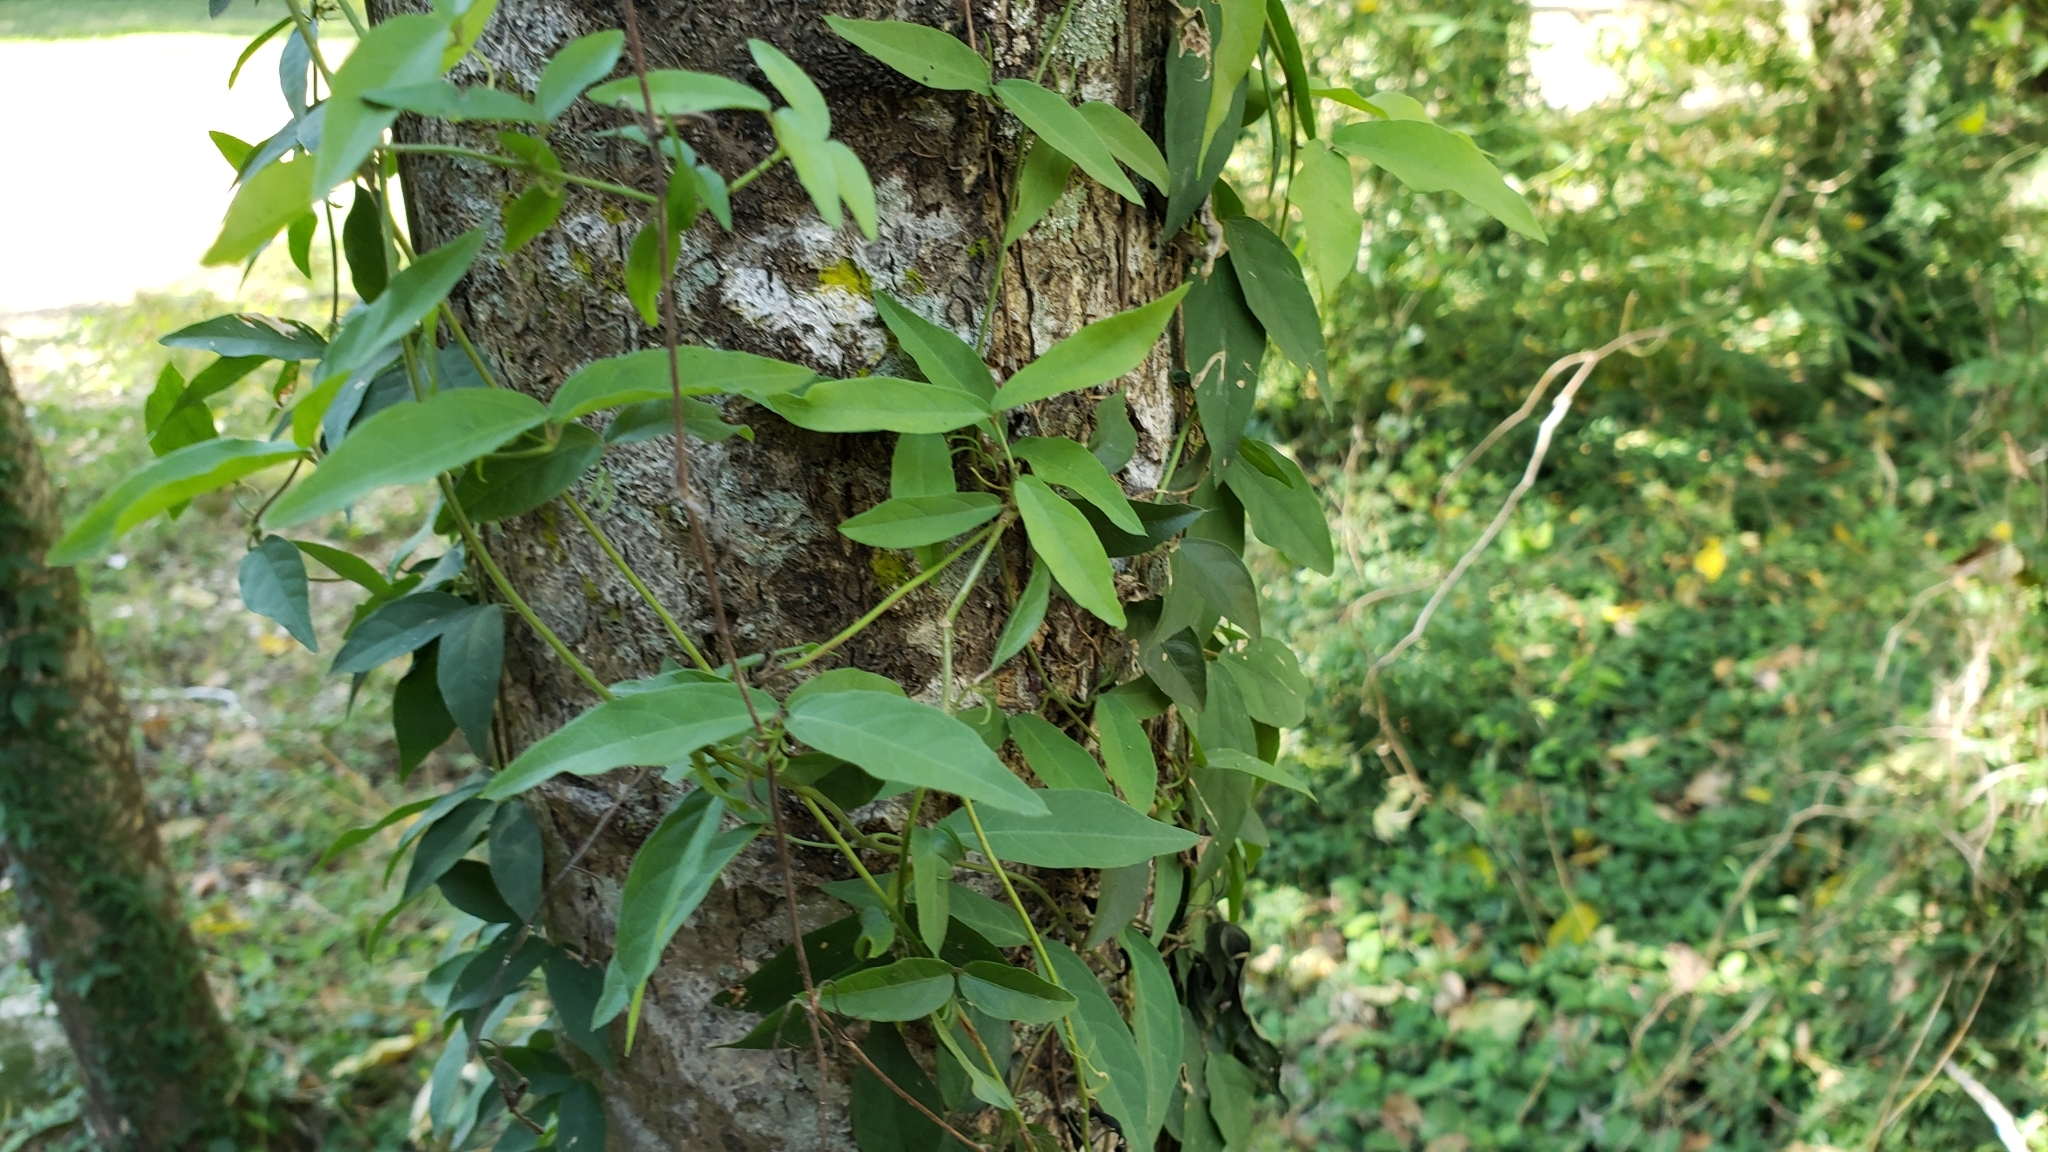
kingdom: Plantae
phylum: Tracheophyta
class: Magnoliopsida
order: Lamiales
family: Bignoniaceae
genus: Dolichandra
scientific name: Dolichandra unguis-cati
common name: Catclaw vine
